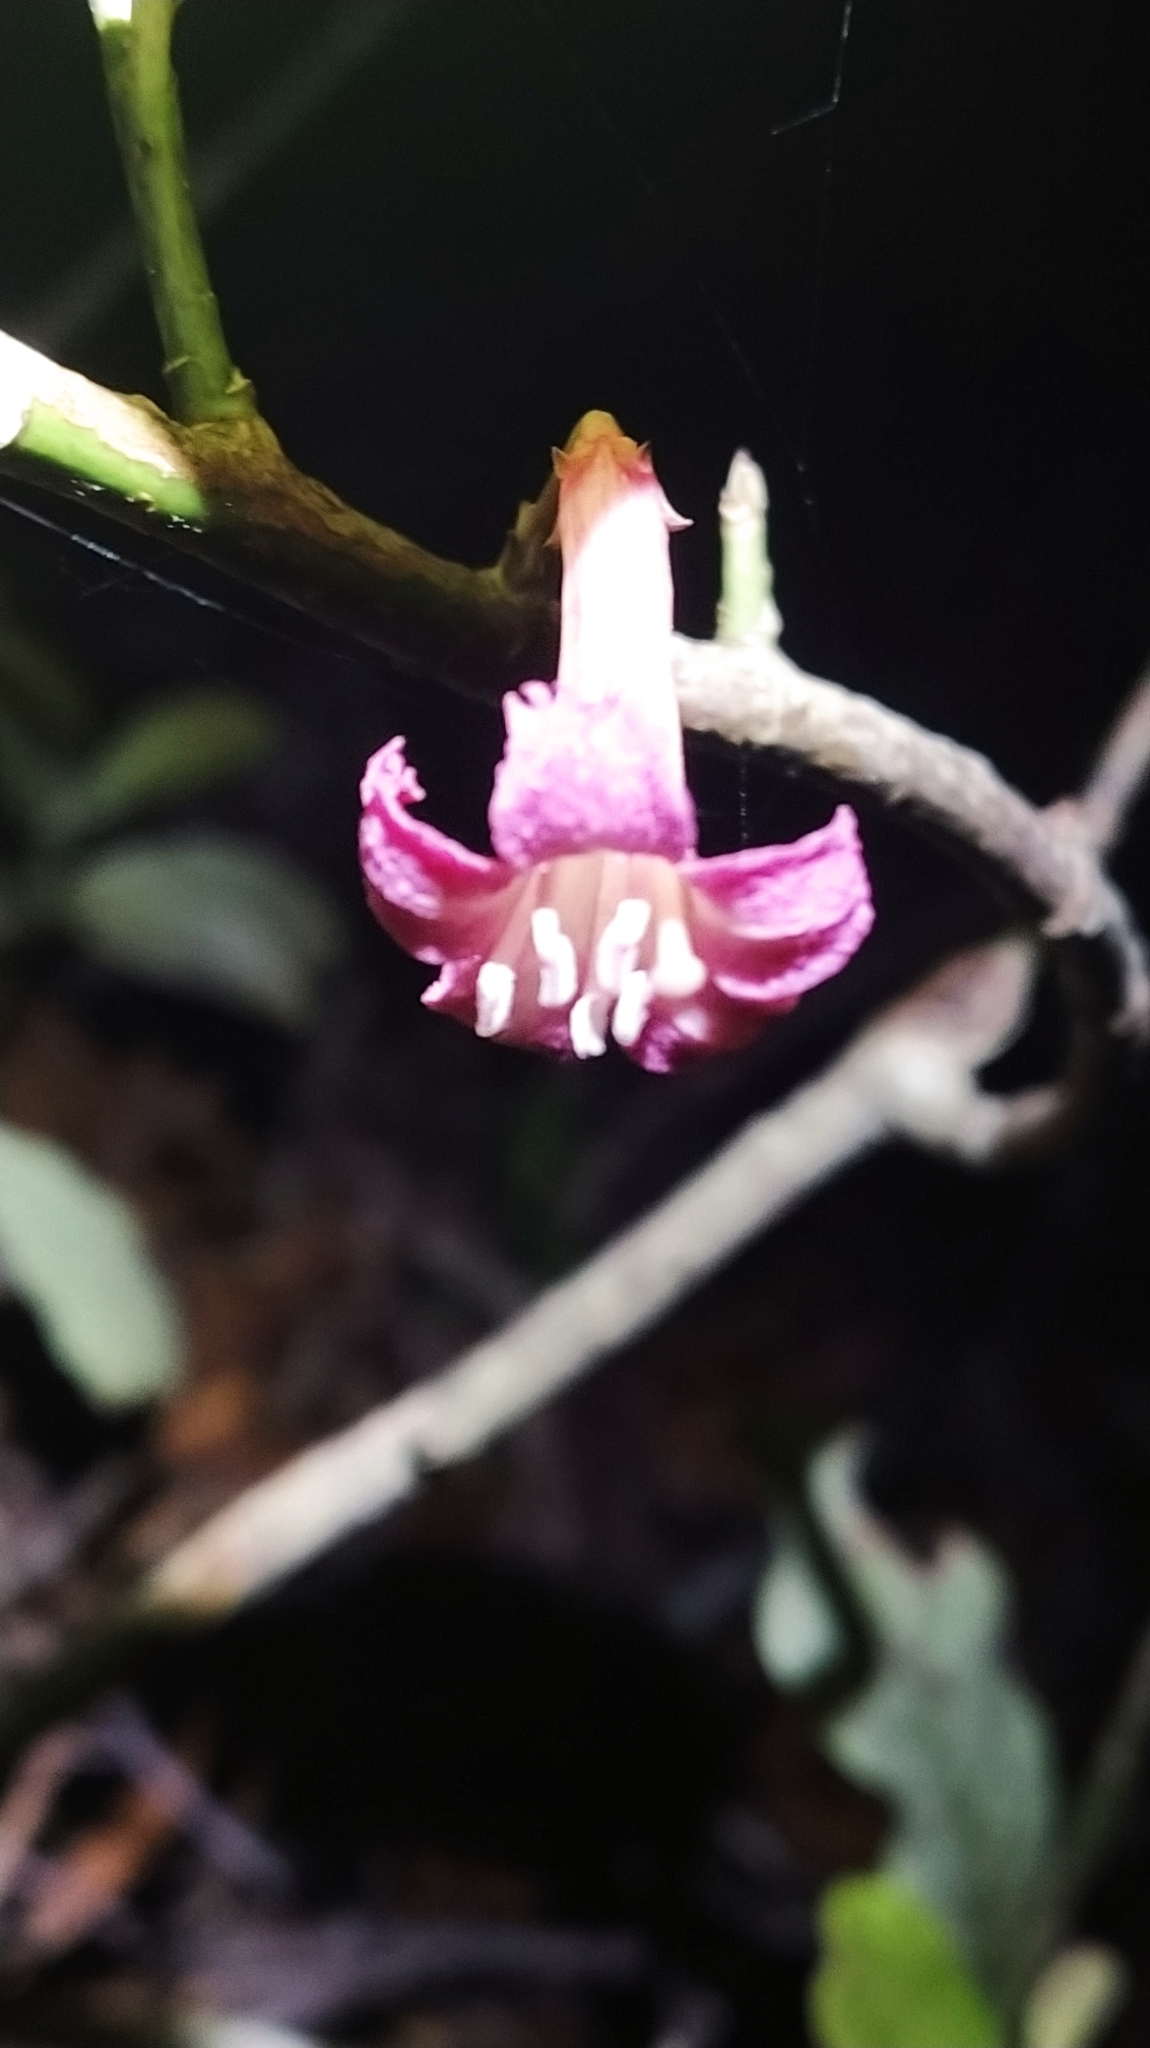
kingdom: Plantae
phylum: Tracheophyta
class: Magnoliopsida
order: Asterales
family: Alseuosmiaceae
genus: Alseuosmia
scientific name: Alseuosmia macrophylla
